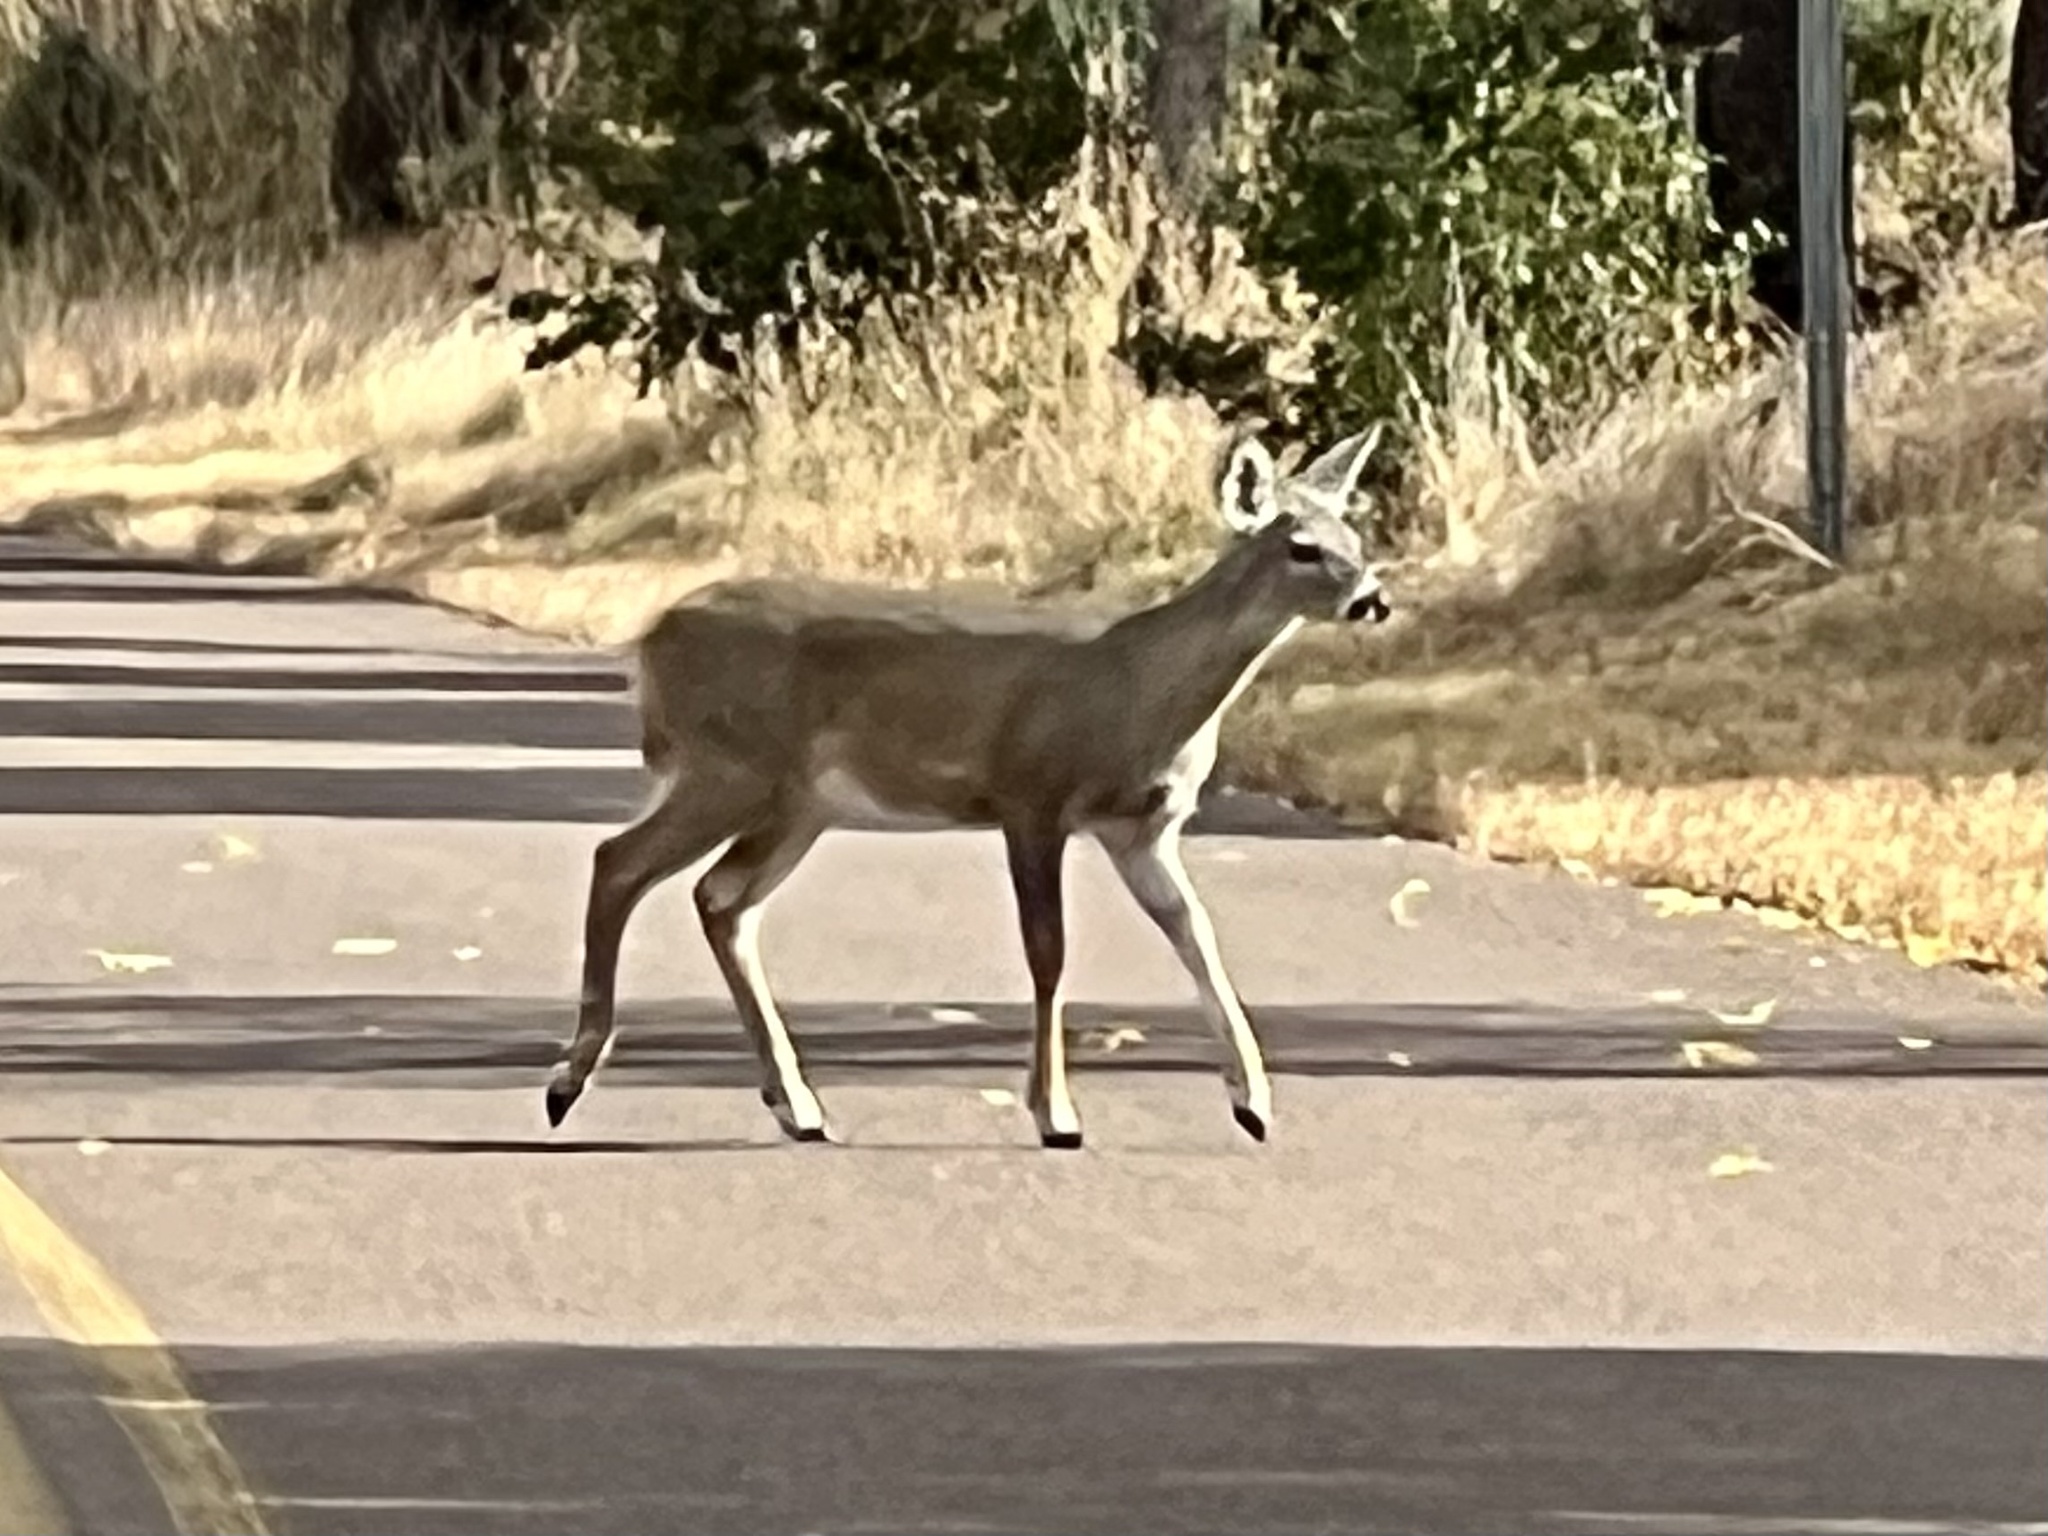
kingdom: Animalia
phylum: Chordata
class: Mammalia
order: Artiodactyla
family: Cervidae
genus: Odocoileus
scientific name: Odocoileus virginianus
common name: White-tailed deer
